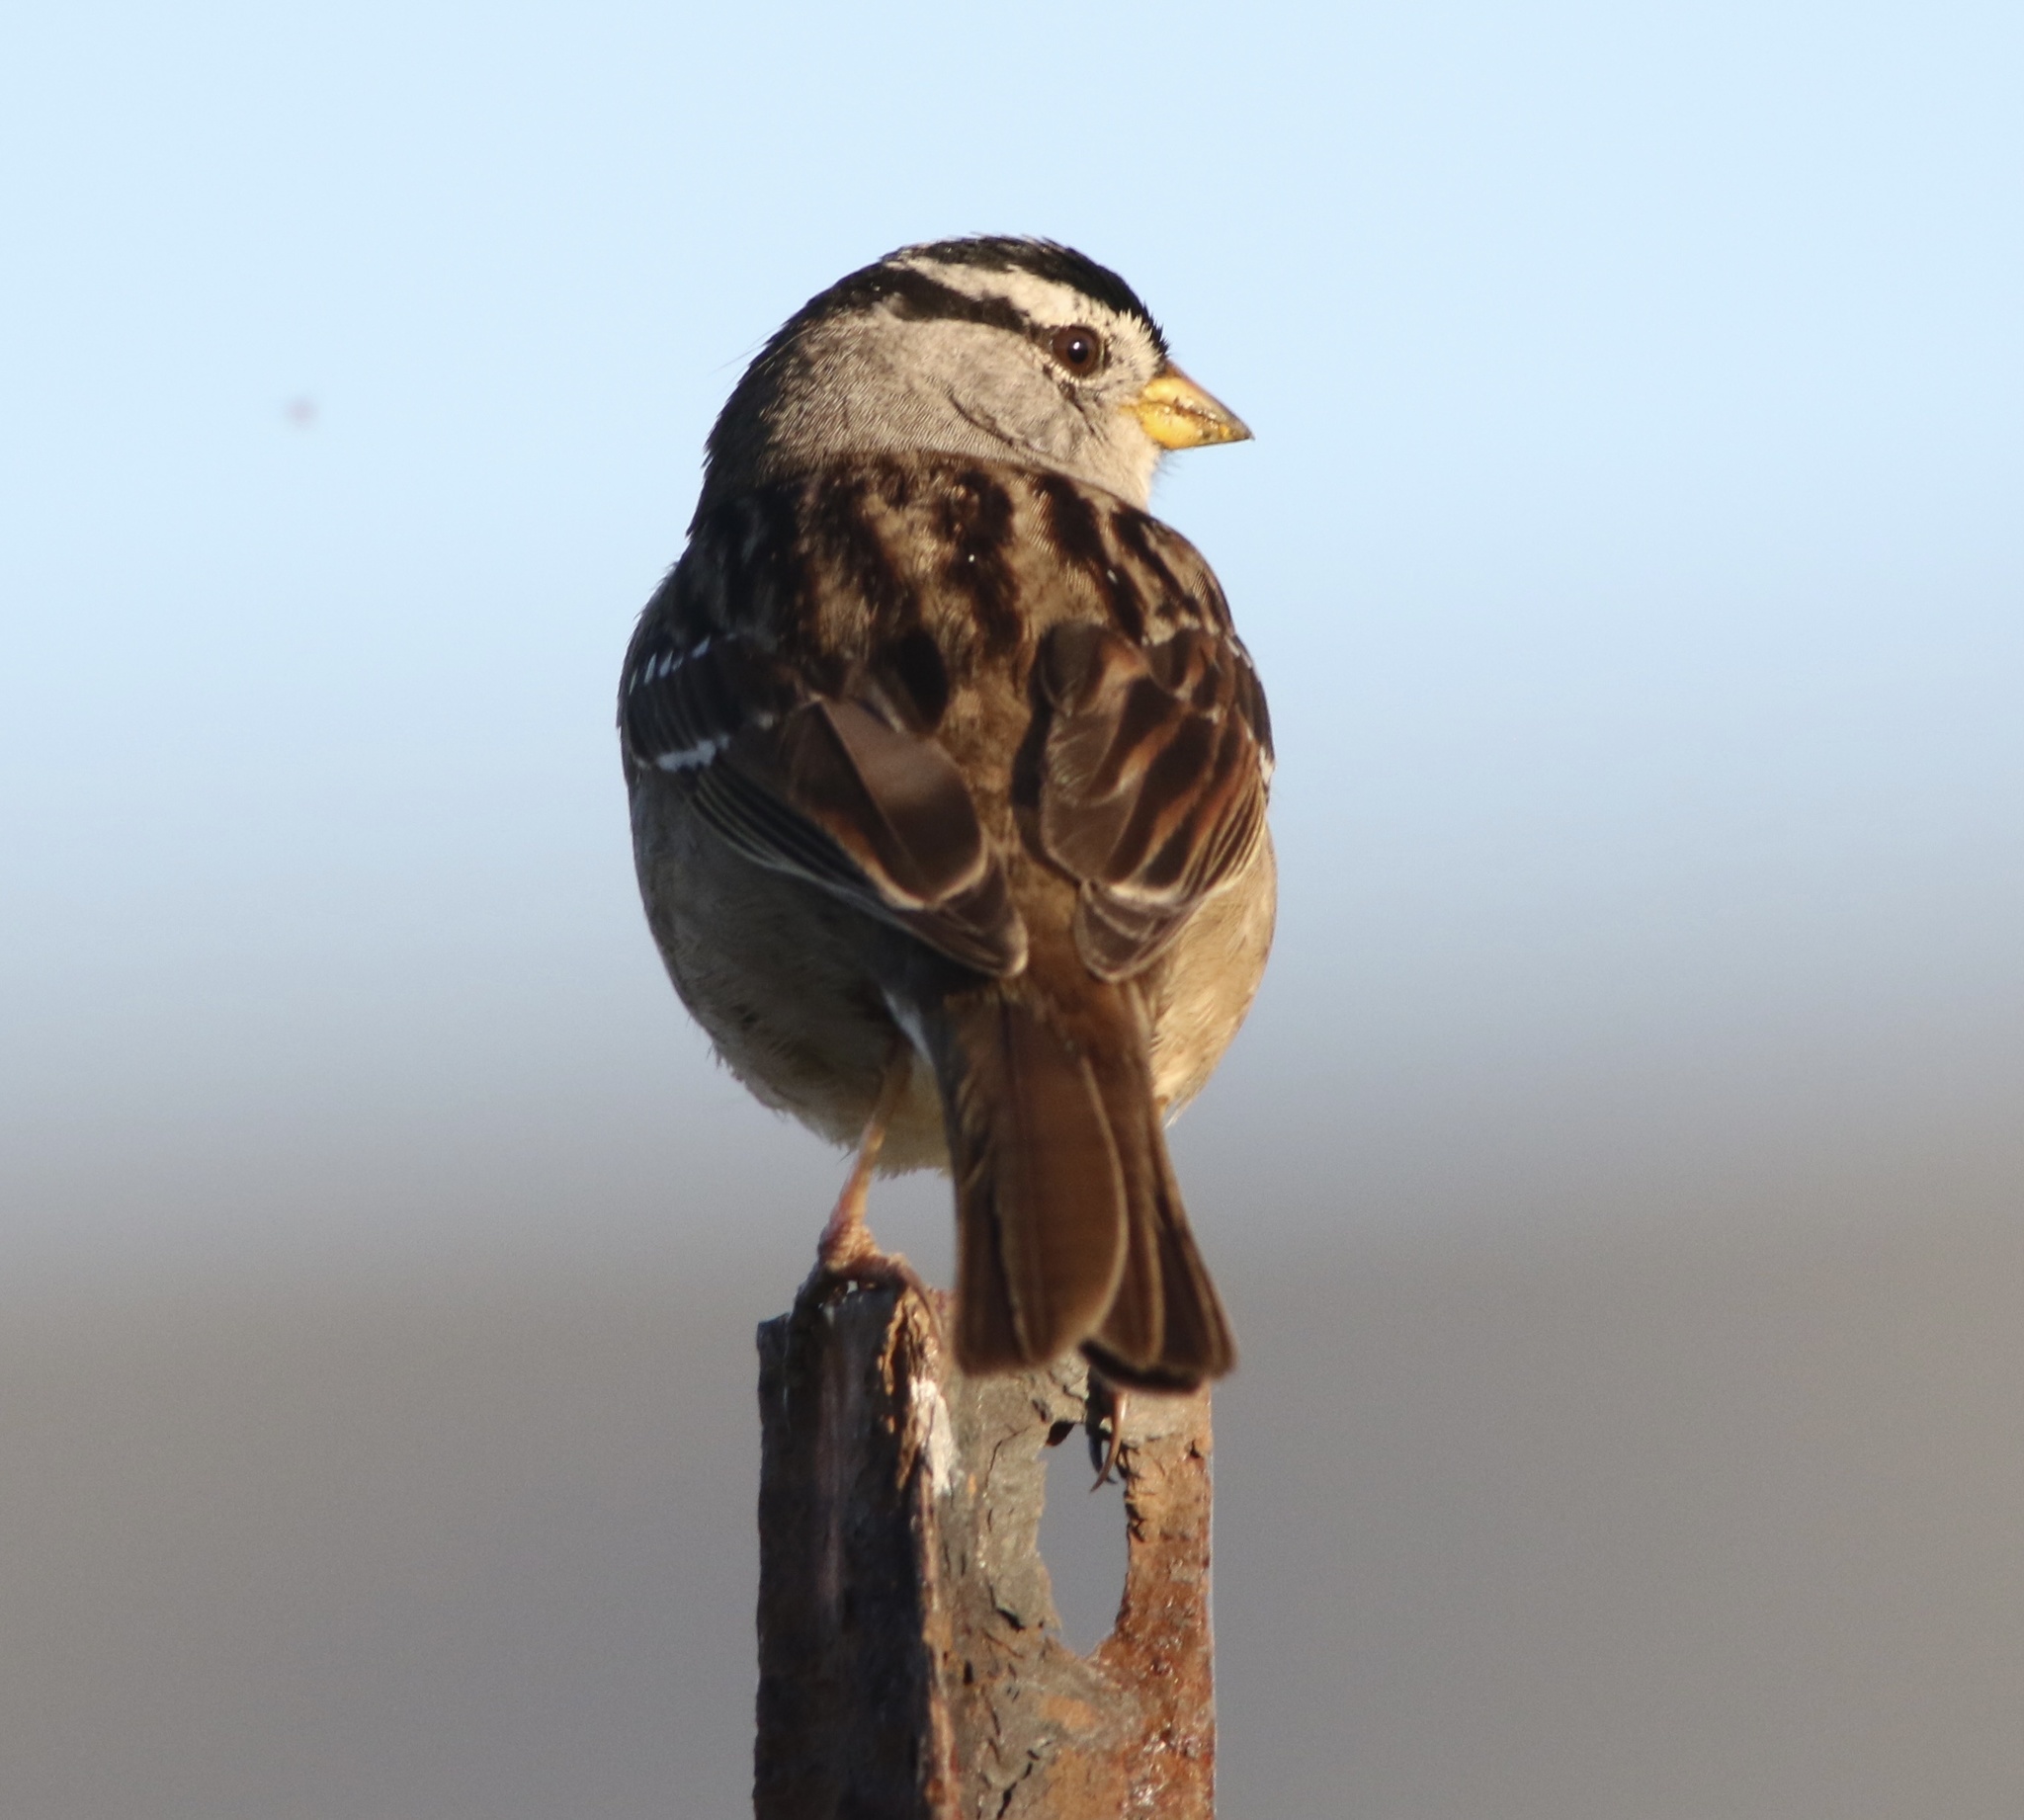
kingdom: Animalia
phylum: Chordata
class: Aves
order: Passeriformes
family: Passerellidae
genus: Zonotrichia
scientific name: Zonotrichia leucophrys
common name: White-crowned sparrow
